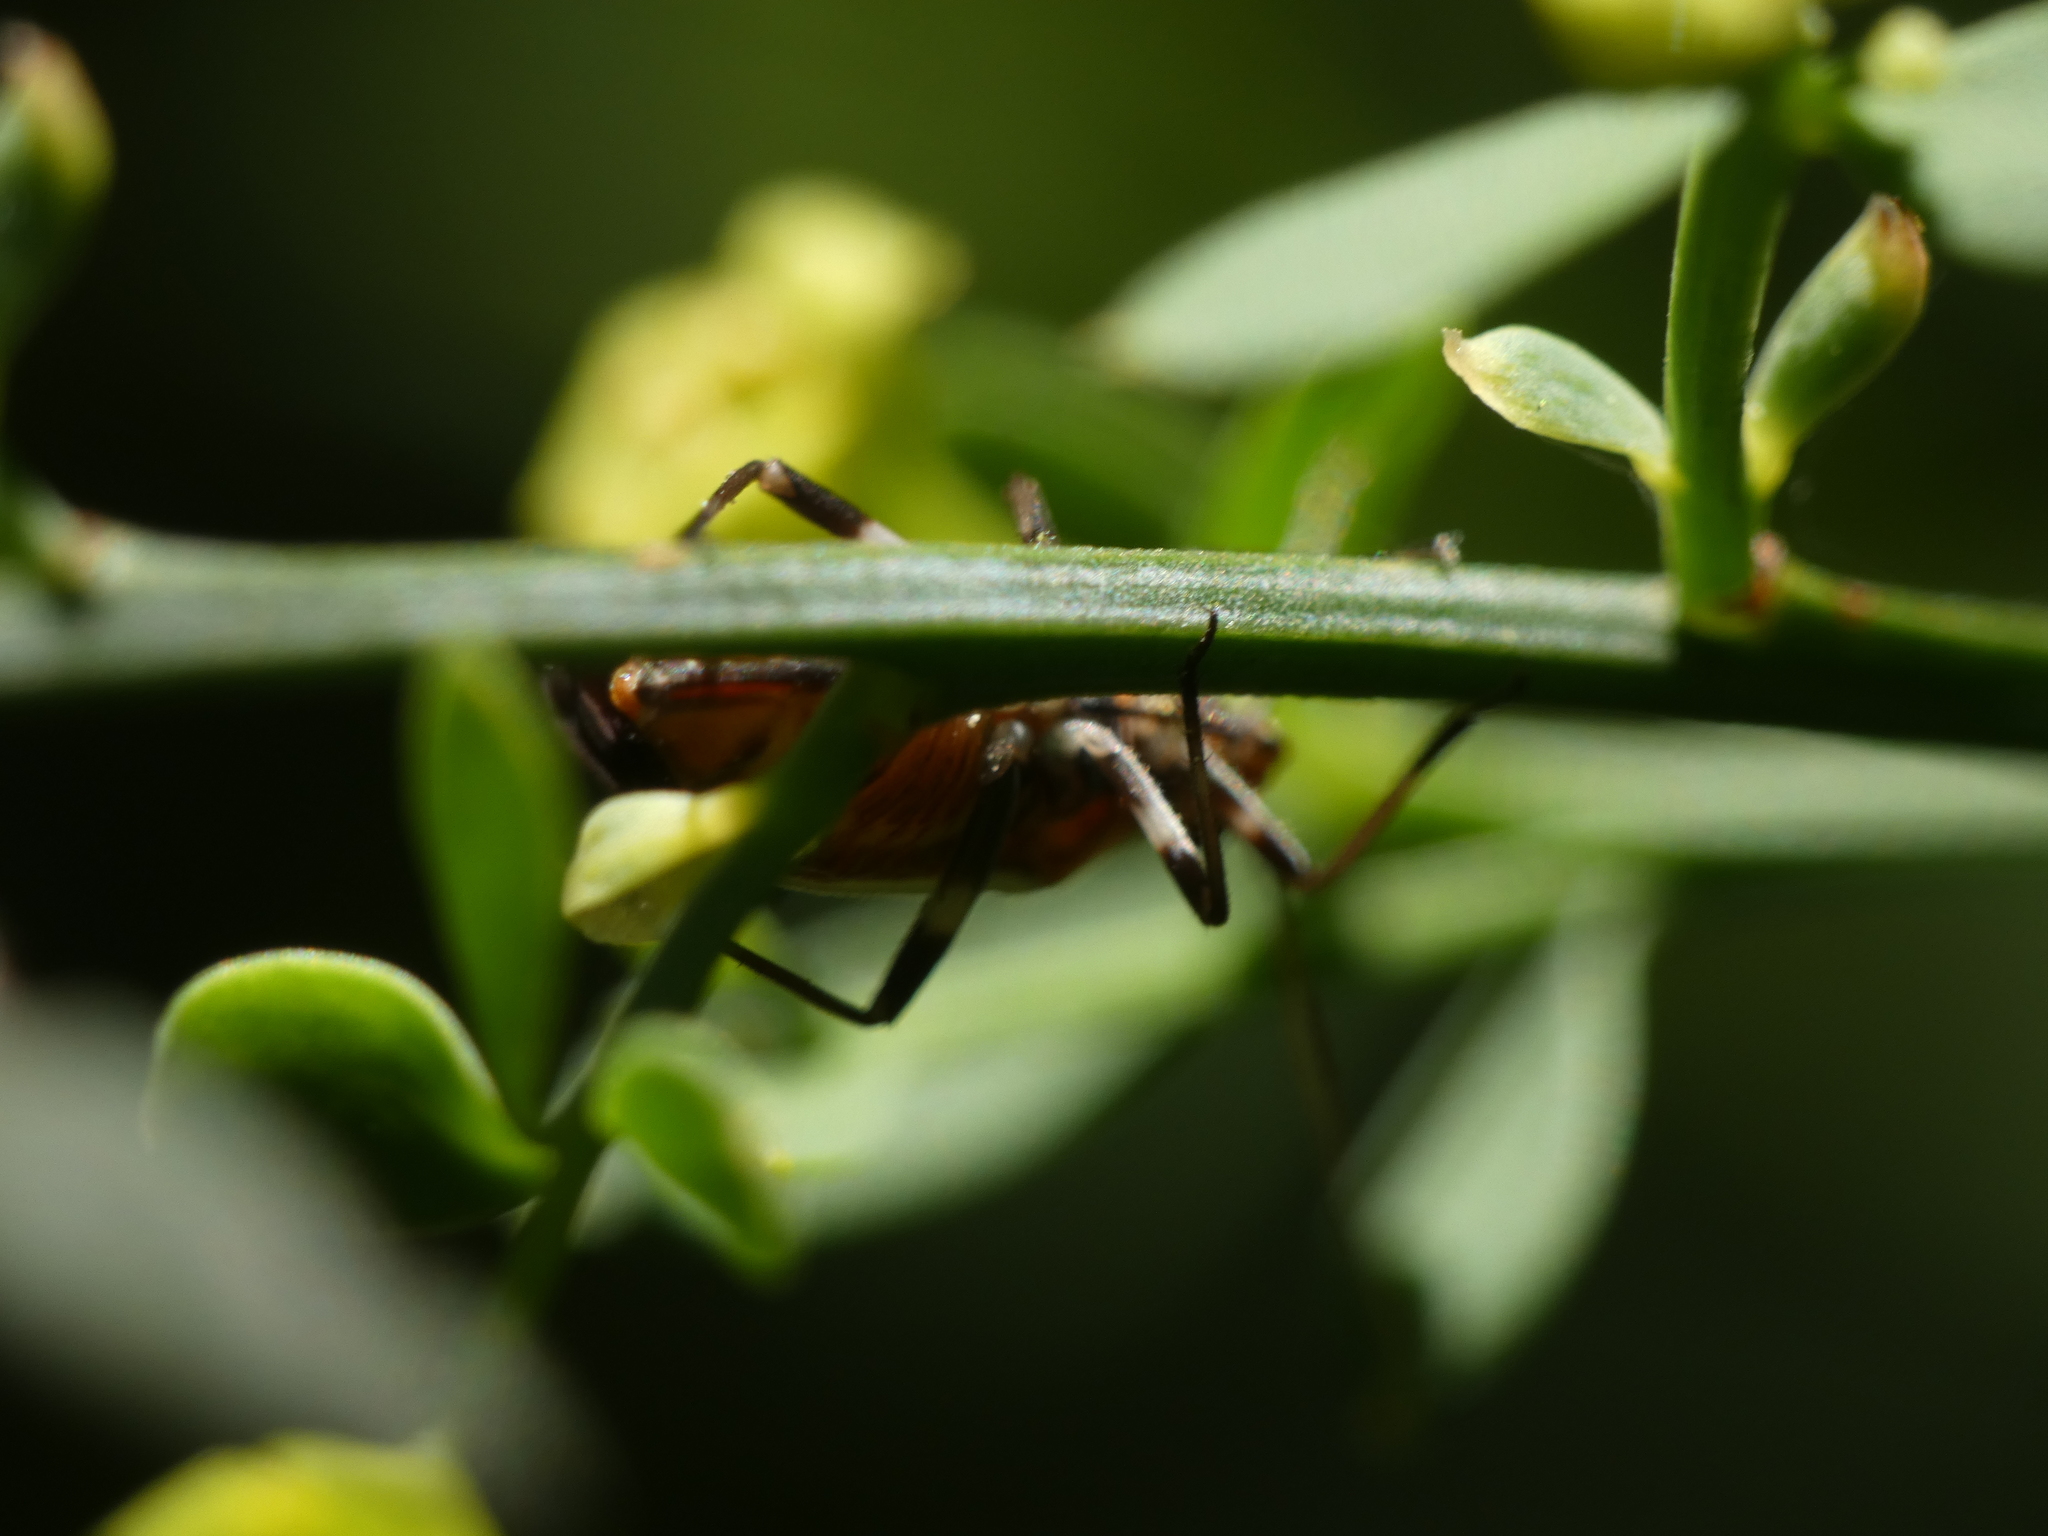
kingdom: Animalia
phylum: Arthropoda
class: Insecta
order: Hemiptera
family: Miridae
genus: Capsodes
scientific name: Capsodes flavomarginatus
